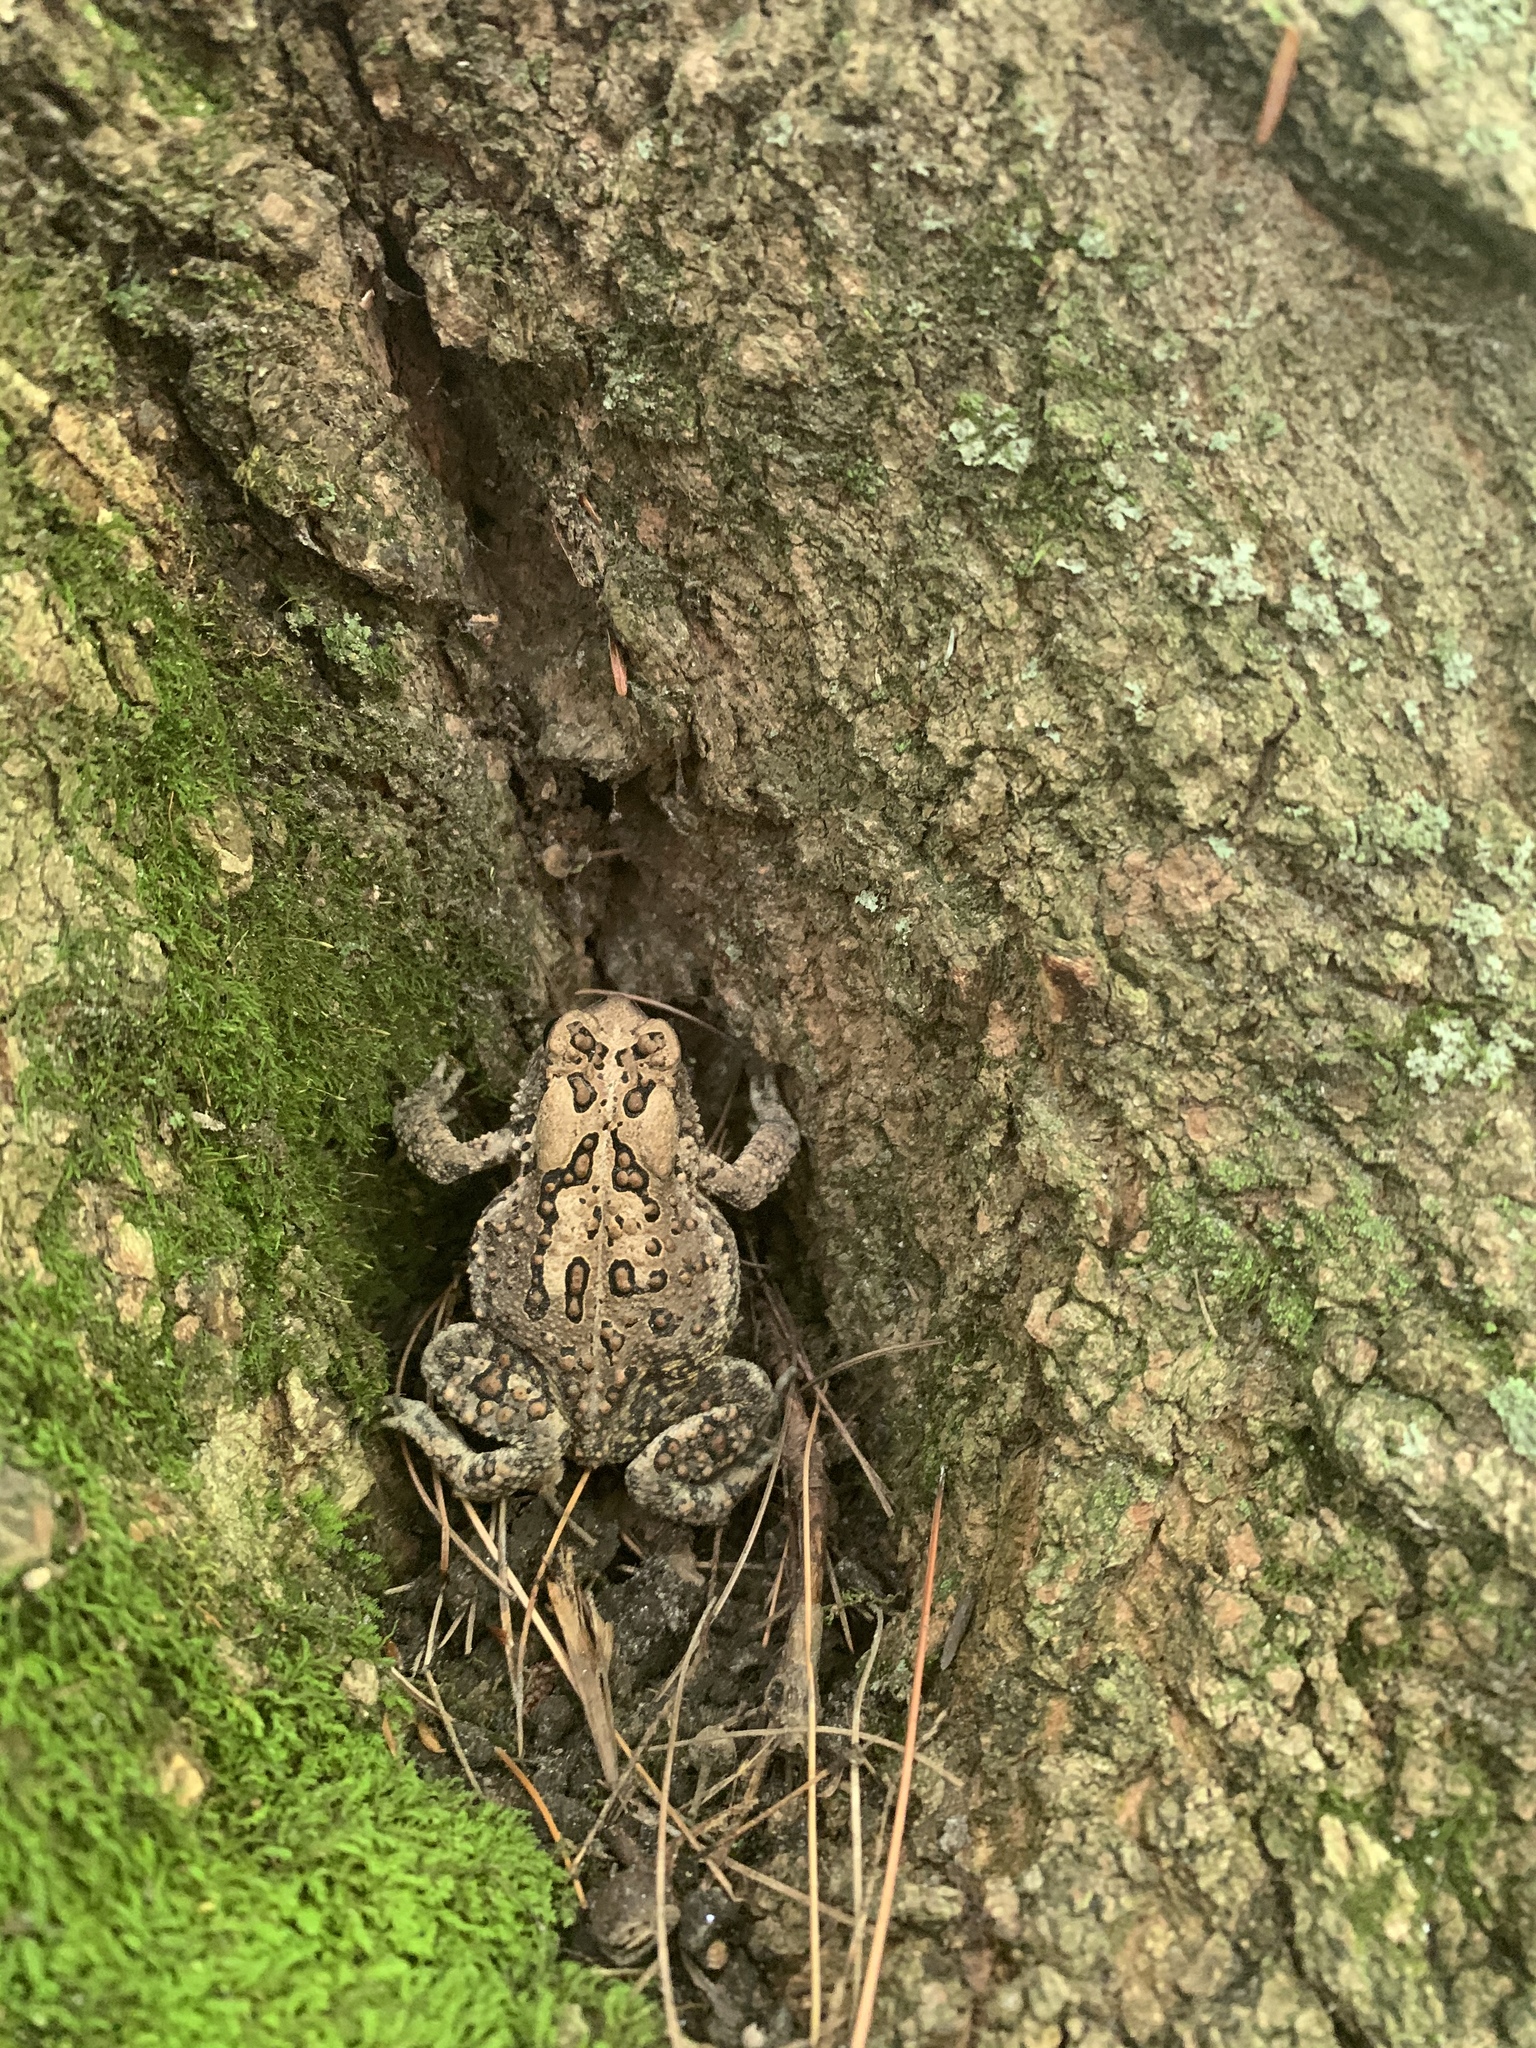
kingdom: Animalia
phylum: Chordata
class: Amphibia
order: Anura
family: Bufonidae
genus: Anaxyrus
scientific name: Anaxyrus americanus
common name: American toad
